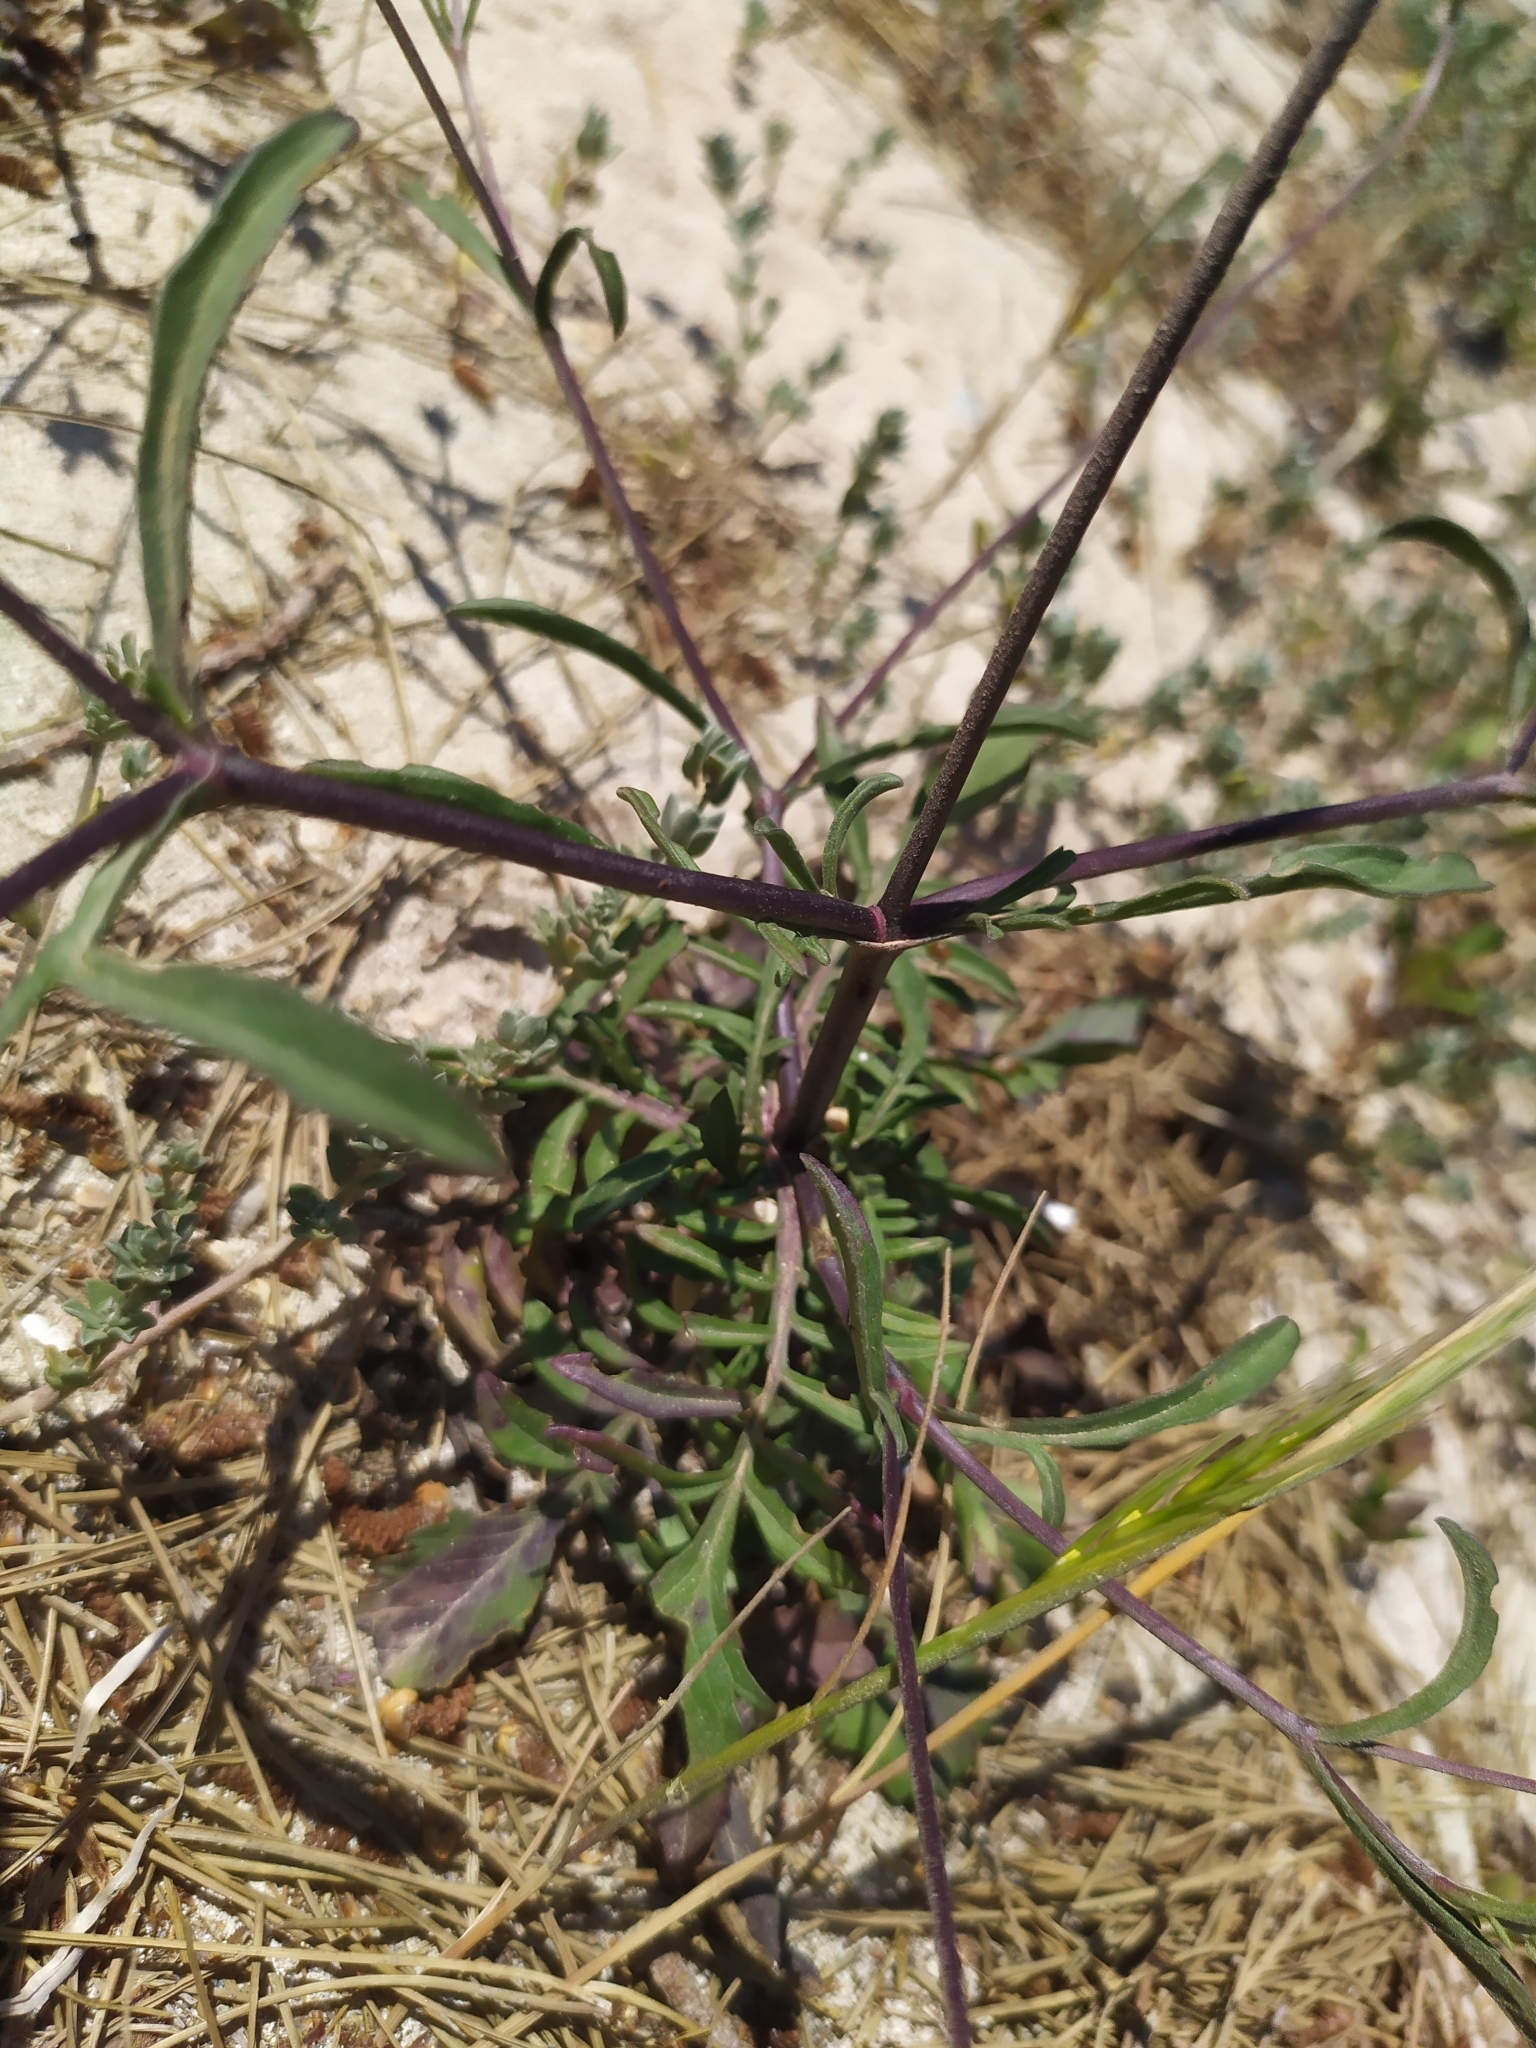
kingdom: Plantae
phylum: Tracheophyta
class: Magnoliopsida
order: Dipsacales
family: Caprifoliaceae
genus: Sixalix
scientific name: Sixalix atropurpurea
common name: Sweet scabious
